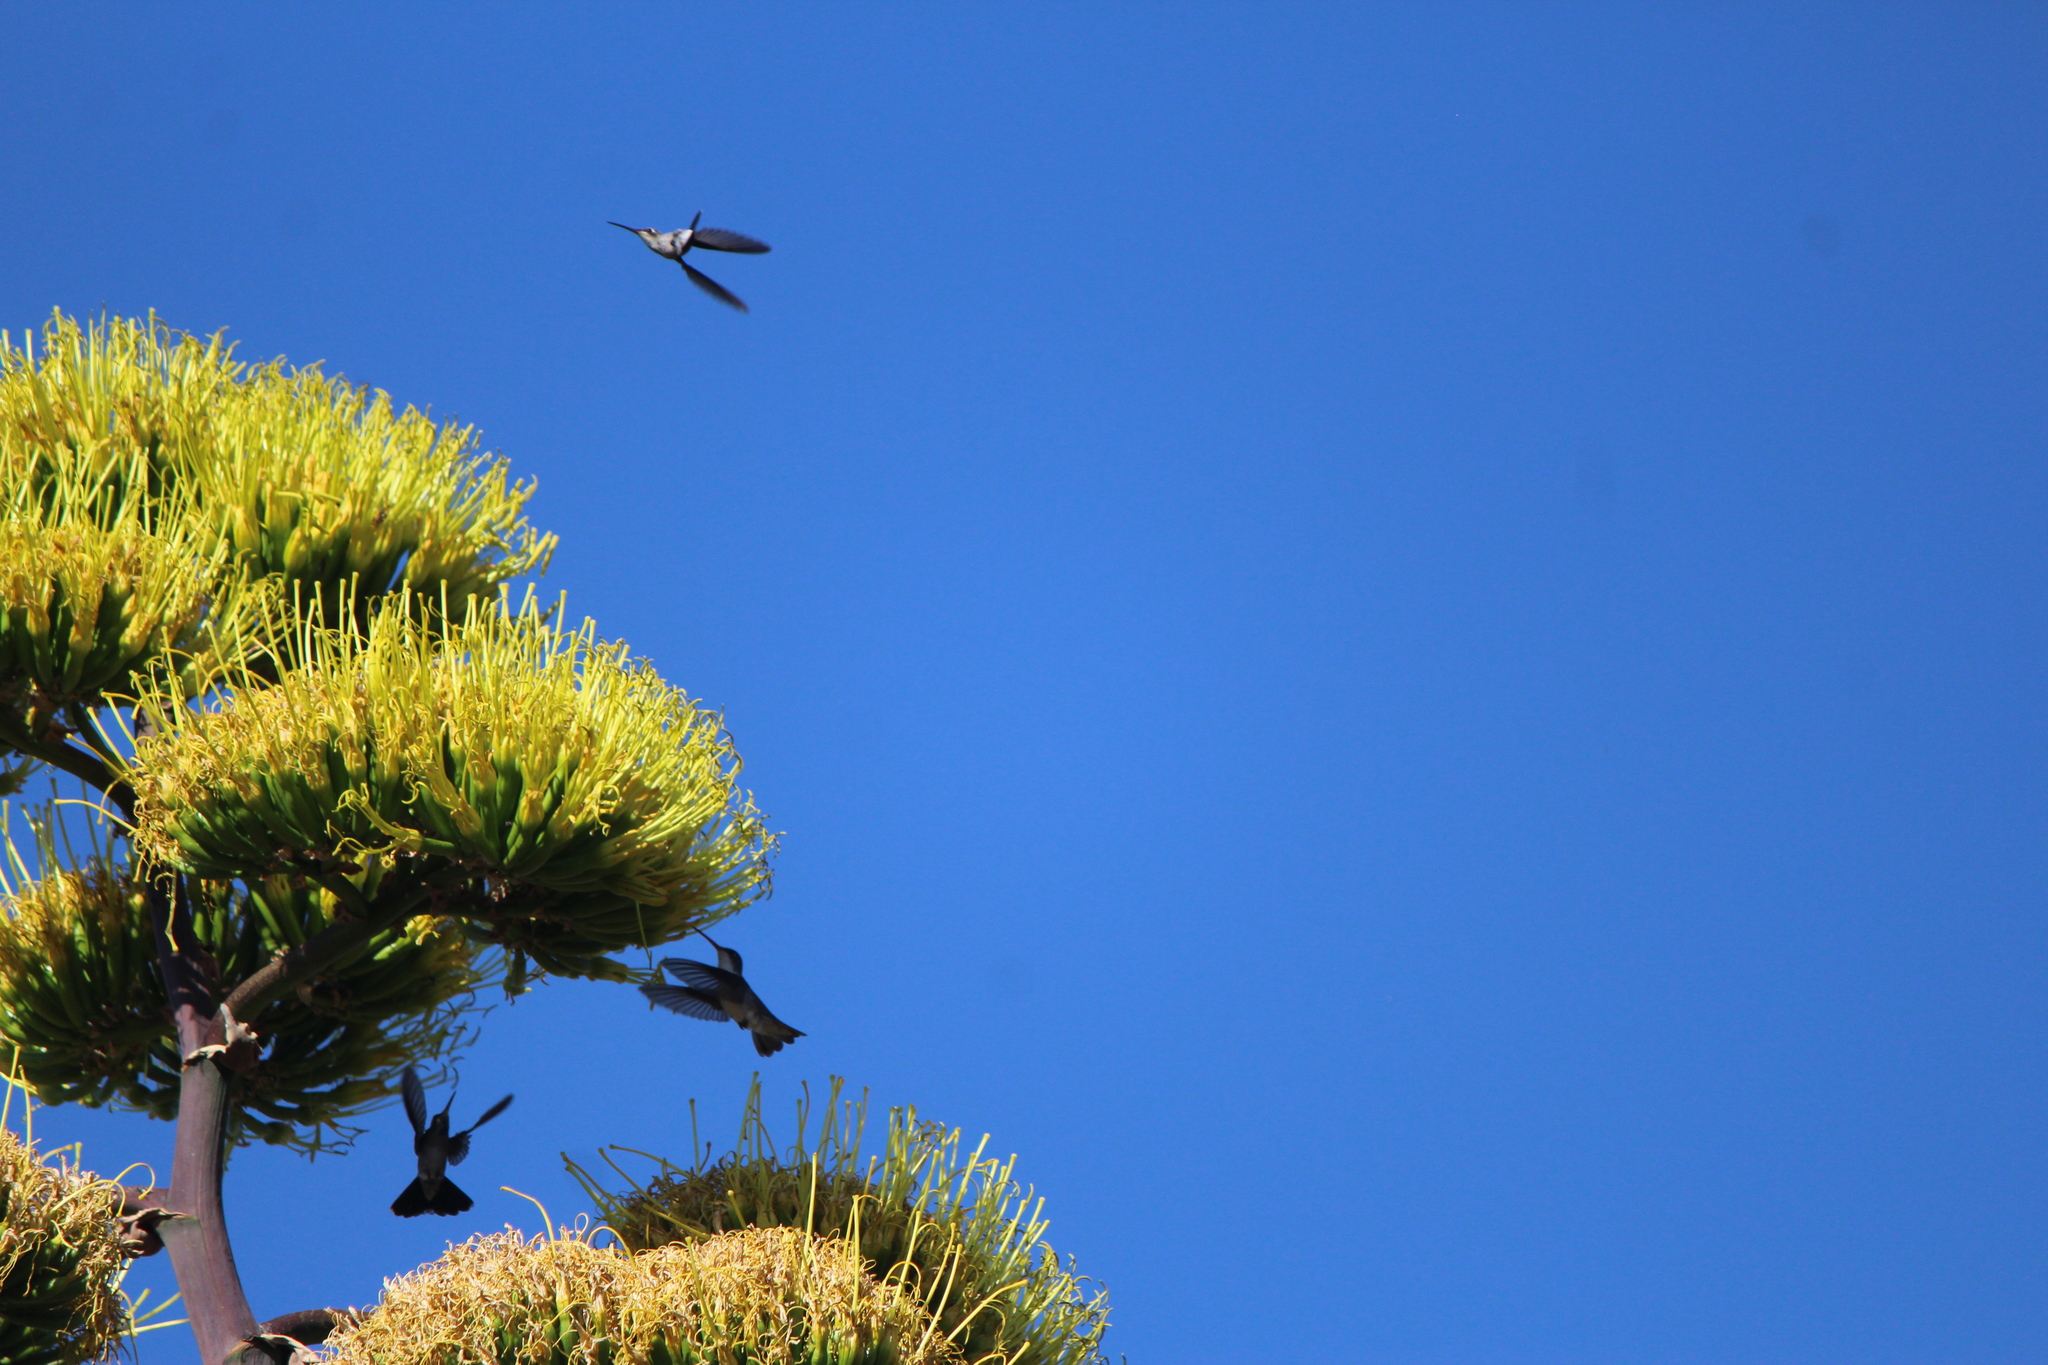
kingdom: Animalia
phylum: Chordata
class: Aves
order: Apodiformes
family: Trochilidae
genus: Leucolia
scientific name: Leucolia violiceps
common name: Violet-crowned hummingbird
